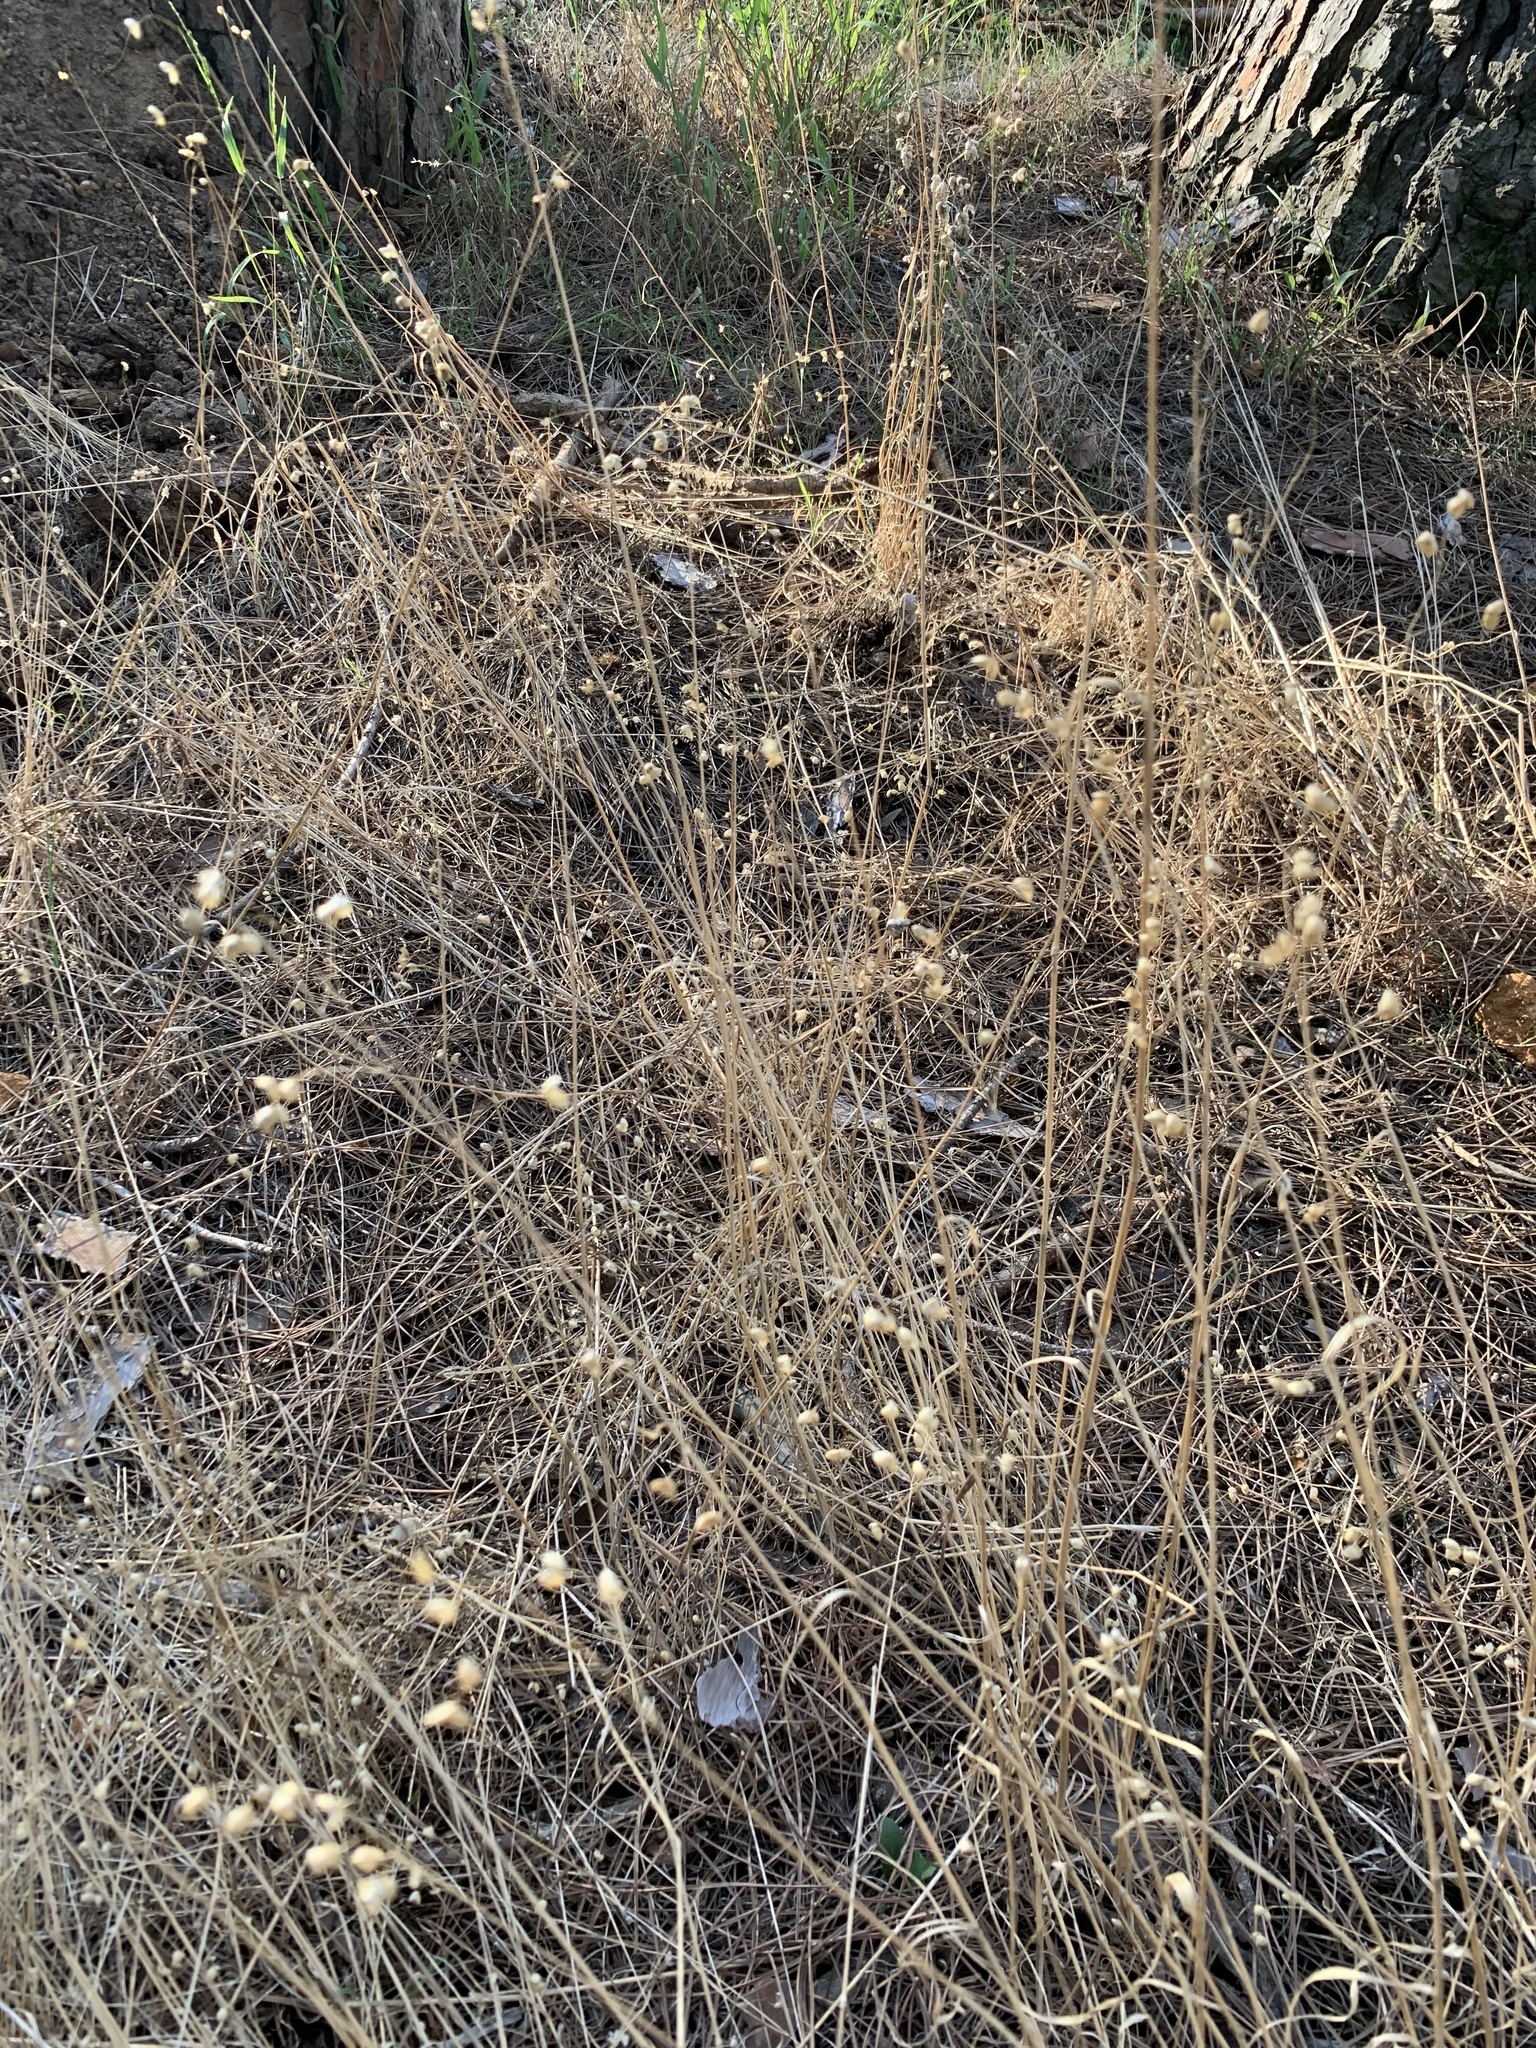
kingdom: Plantae
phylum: Tracheophyta
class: Liliopsida
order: Poales
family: Poaceae
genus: Briza
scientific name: Briza maxima
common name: Big quakinggrass
